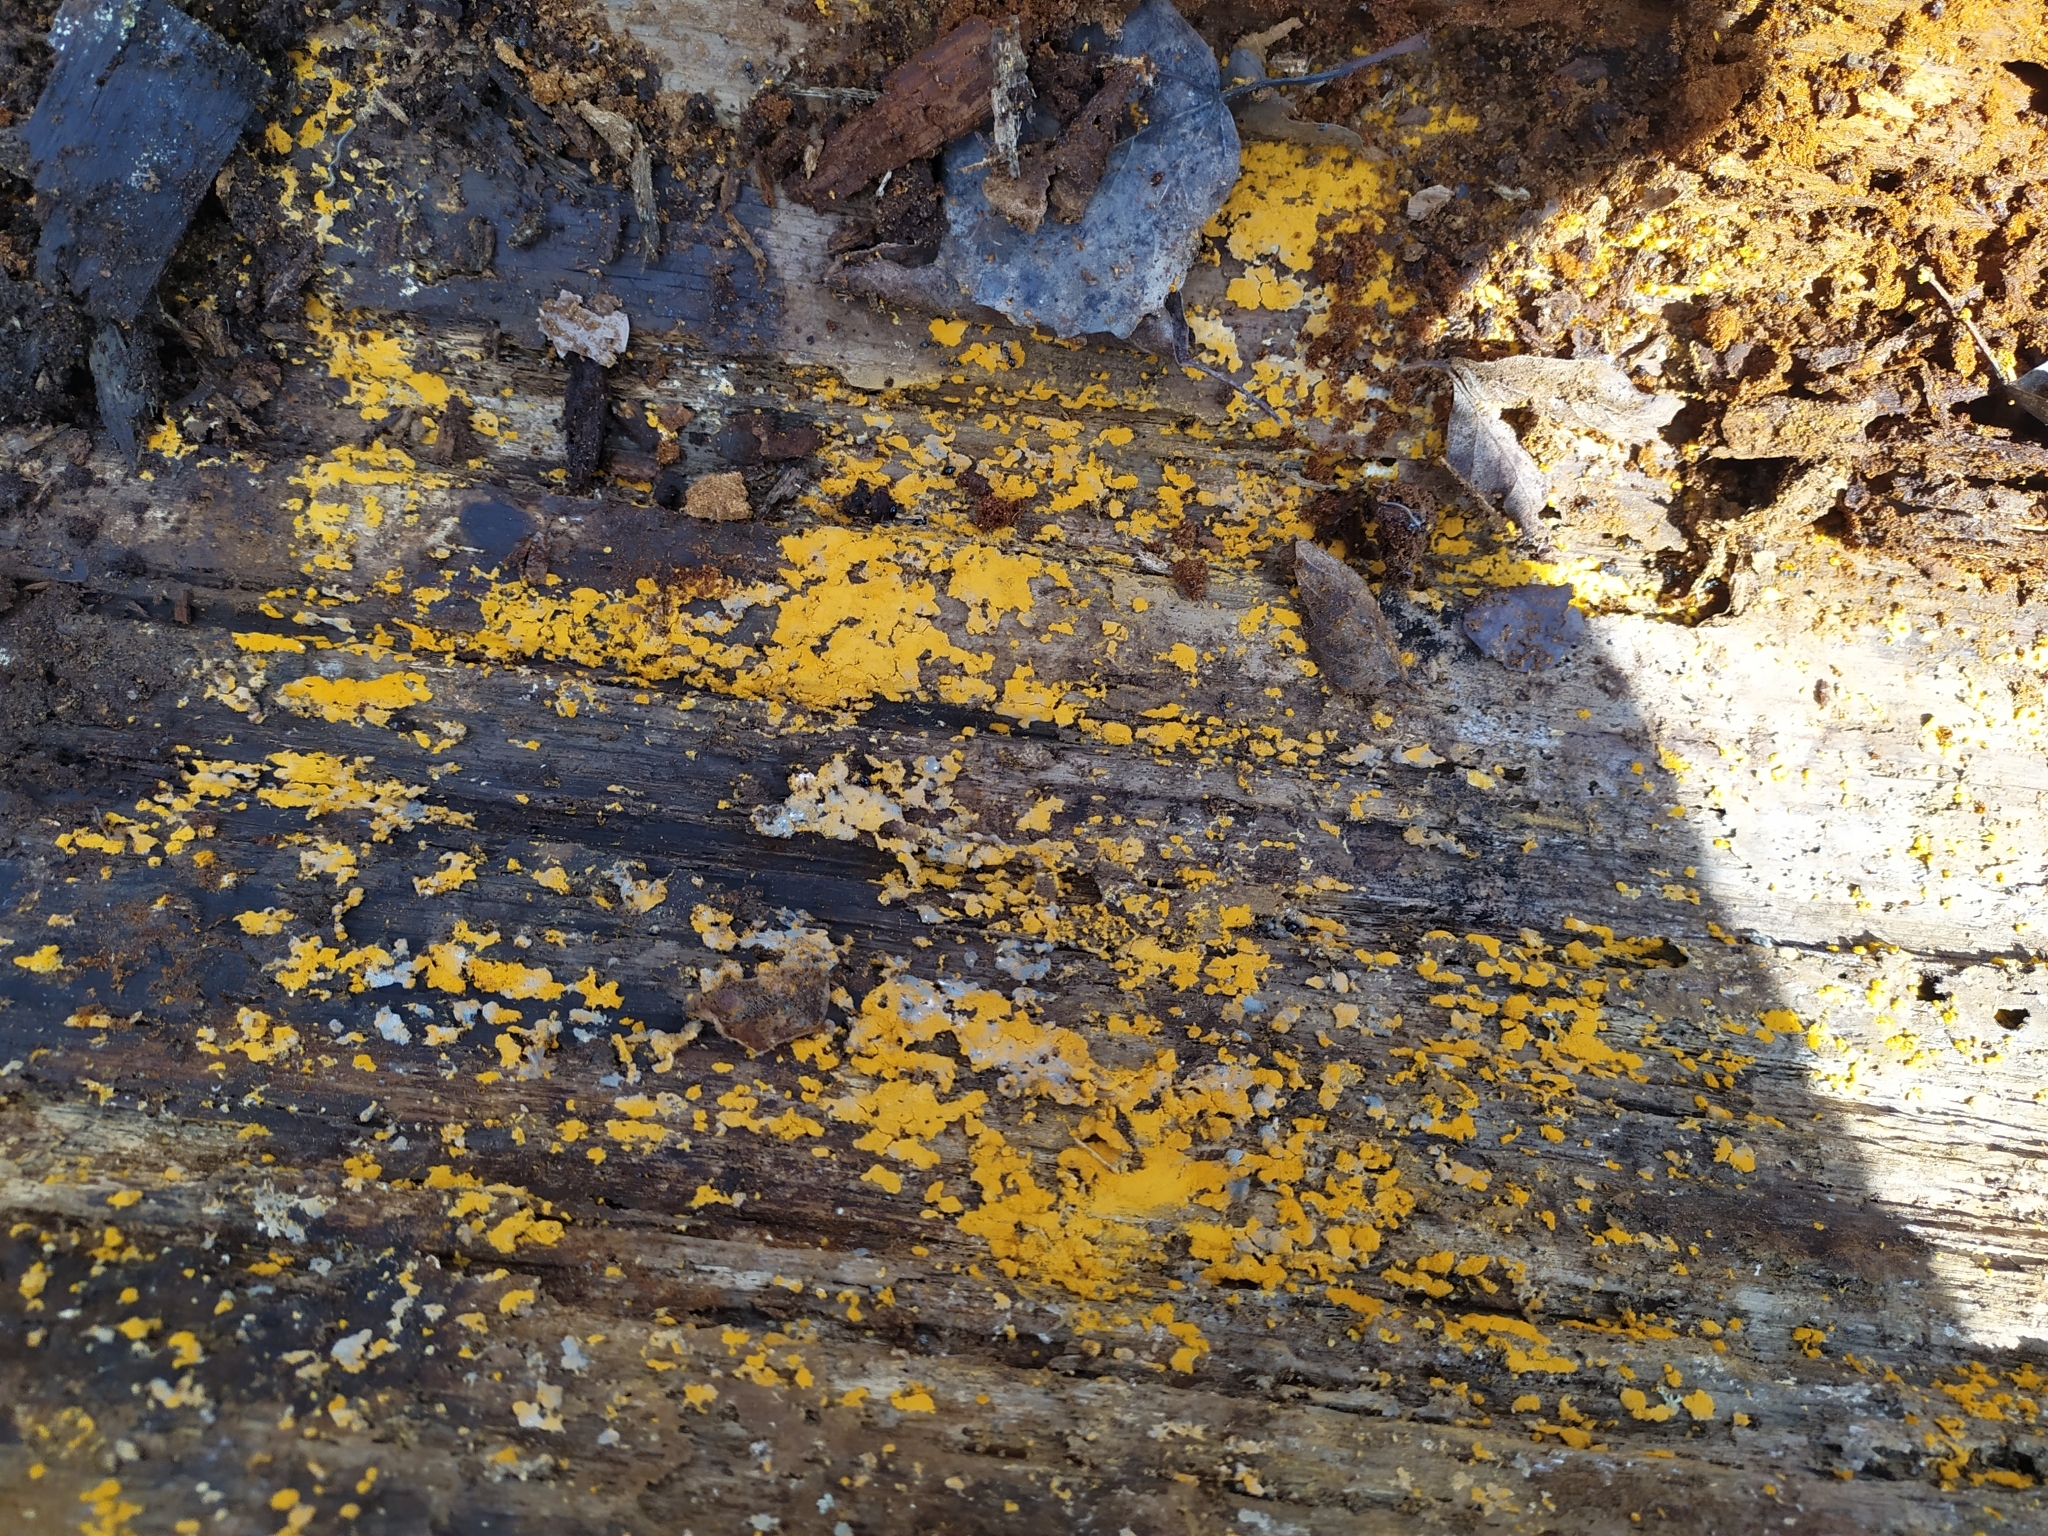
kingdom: Protozoa
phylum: Mycetozoa
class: Myxomycetes
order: Trichiales
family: Trichiaceae
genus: Oligonema
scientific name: Oligonema persimile
